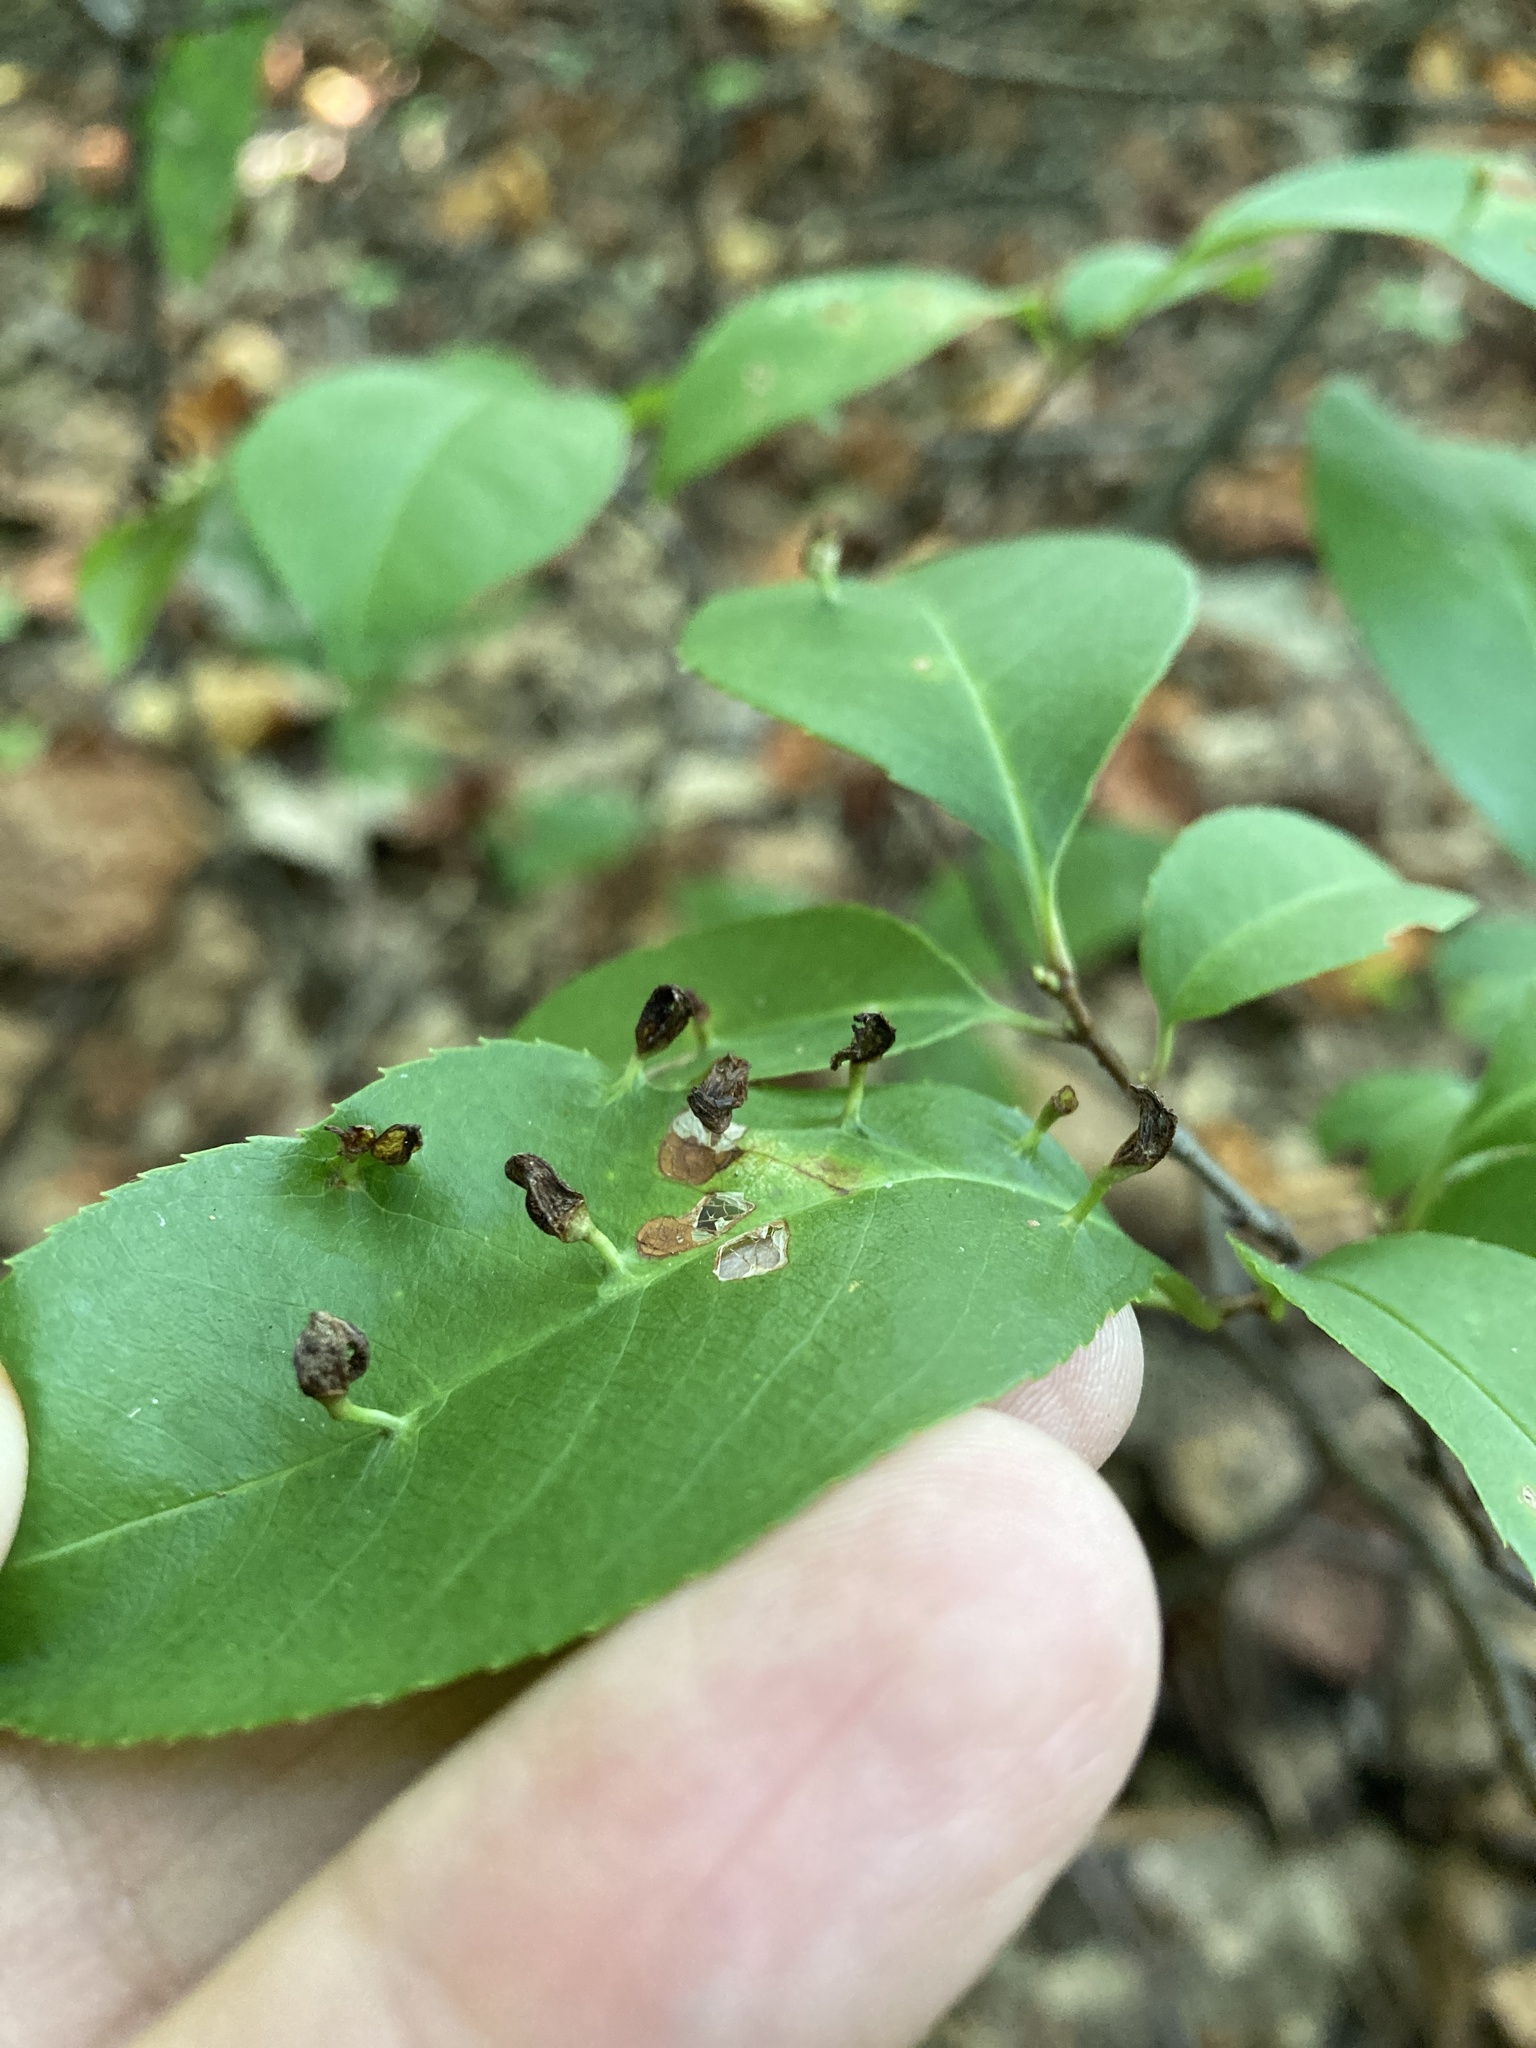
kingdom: Animalia
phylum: Arthropoda
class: Arachnida
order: Trombidiformes
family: Eriophyidae
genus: Eriophyes
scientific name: Eriophyes
